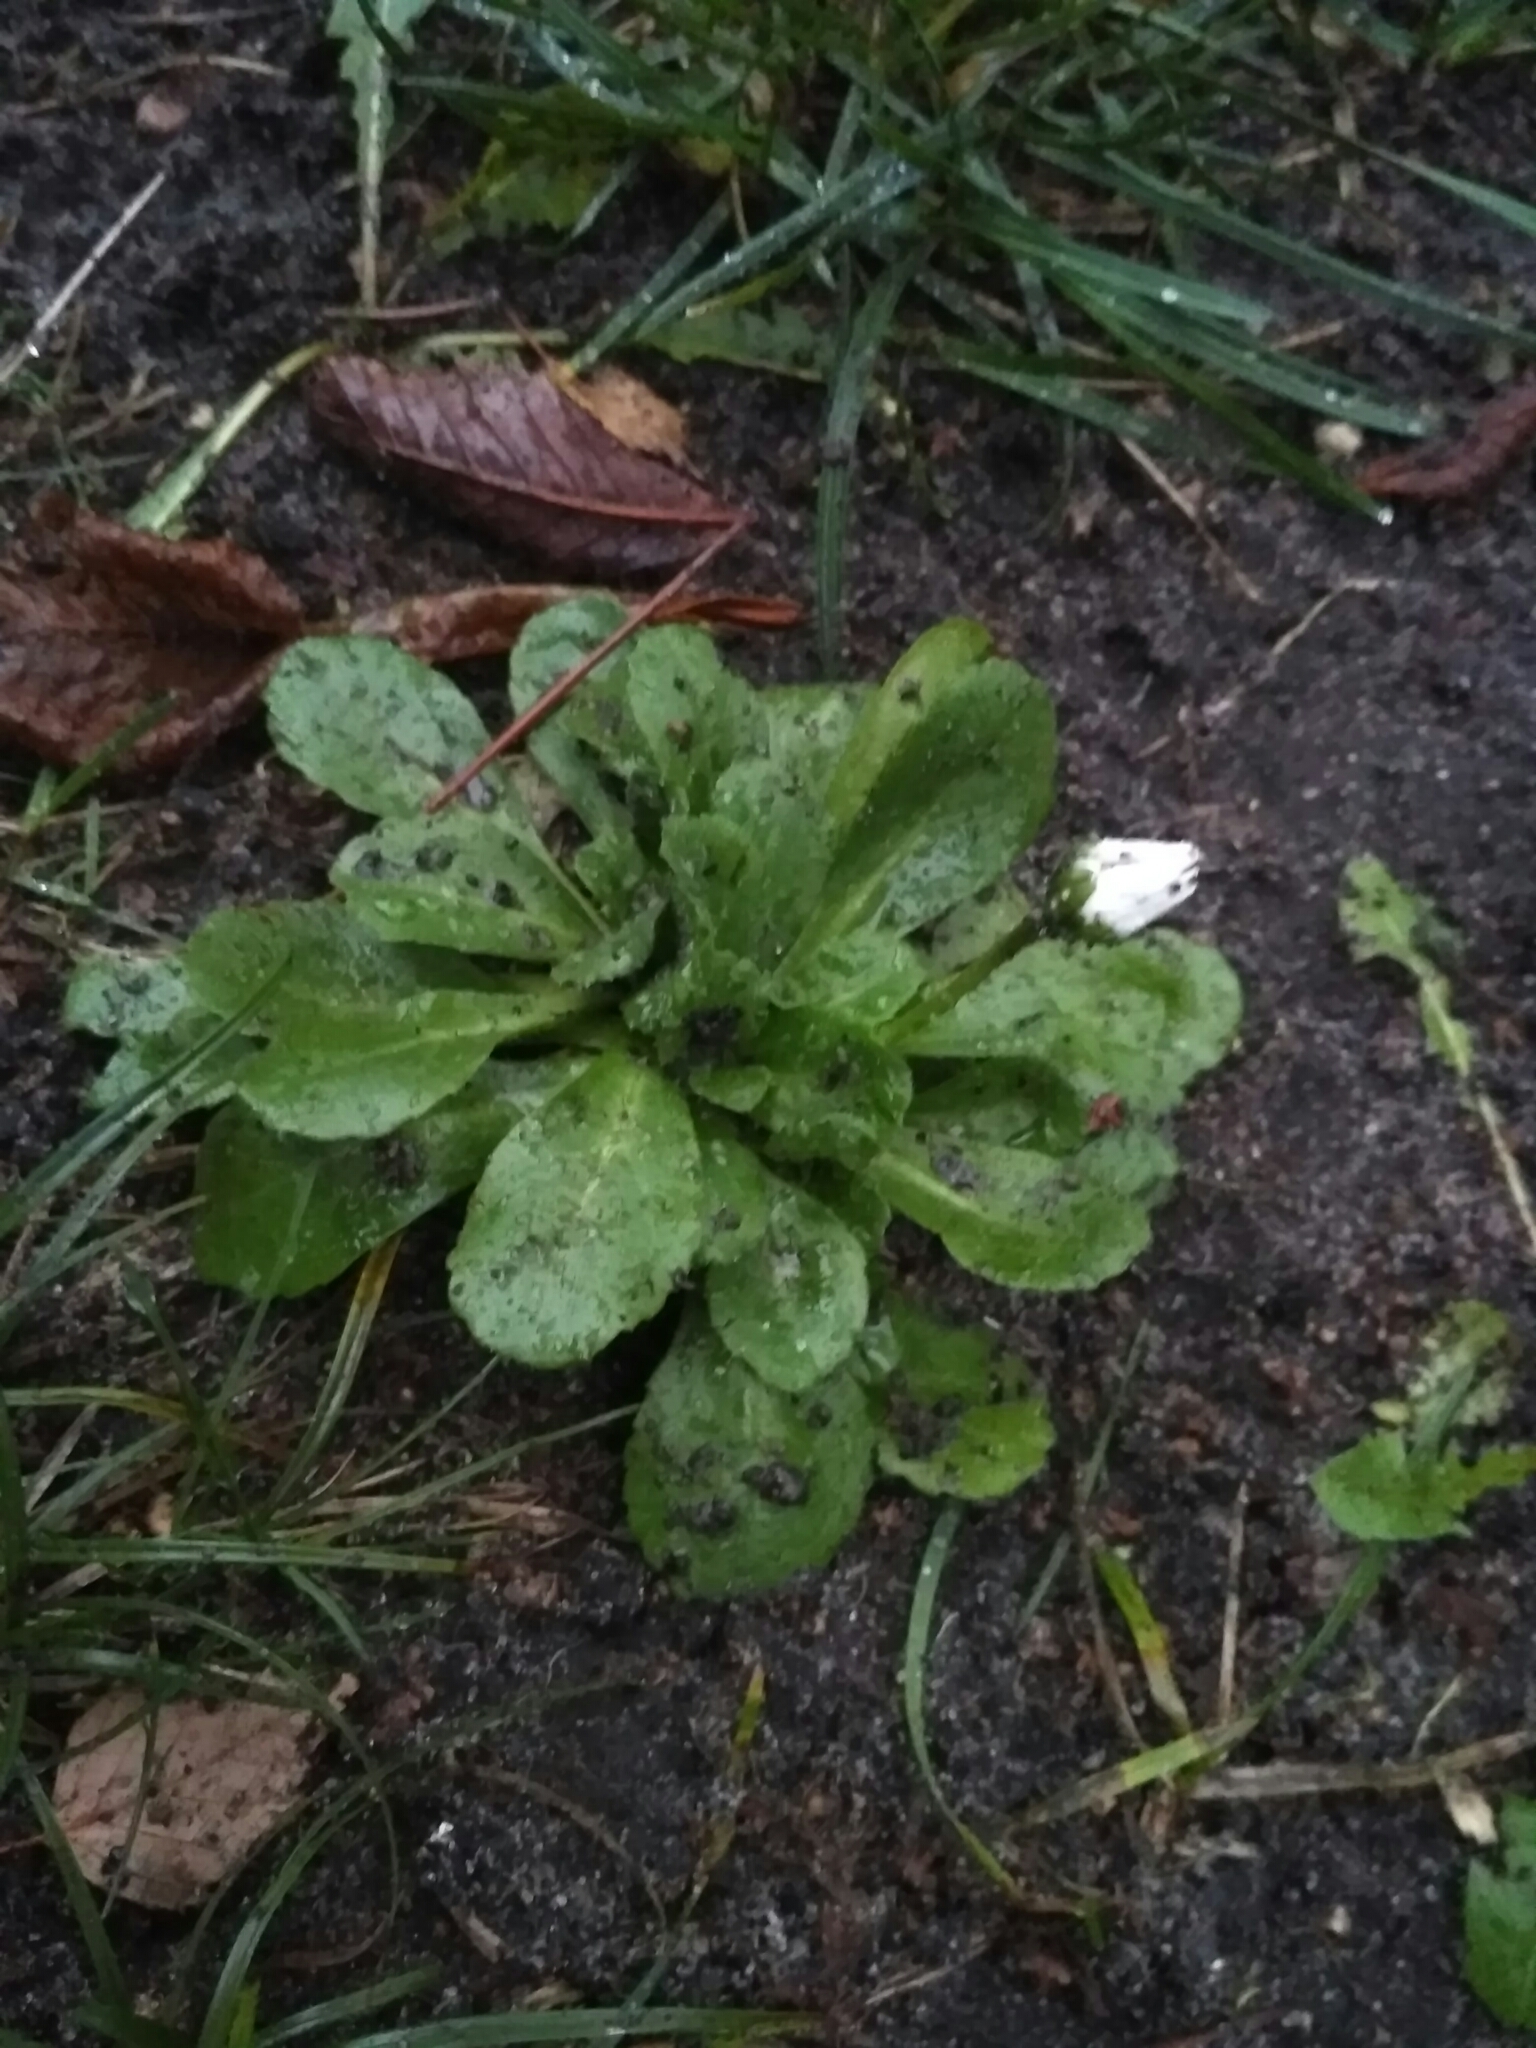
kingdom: Plantae
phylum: Tracheophyta
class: Magnoliopsida
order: Asterales
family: Asteraceae
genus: Bellis
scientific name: Bellis perennis
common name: Lawndaisy
